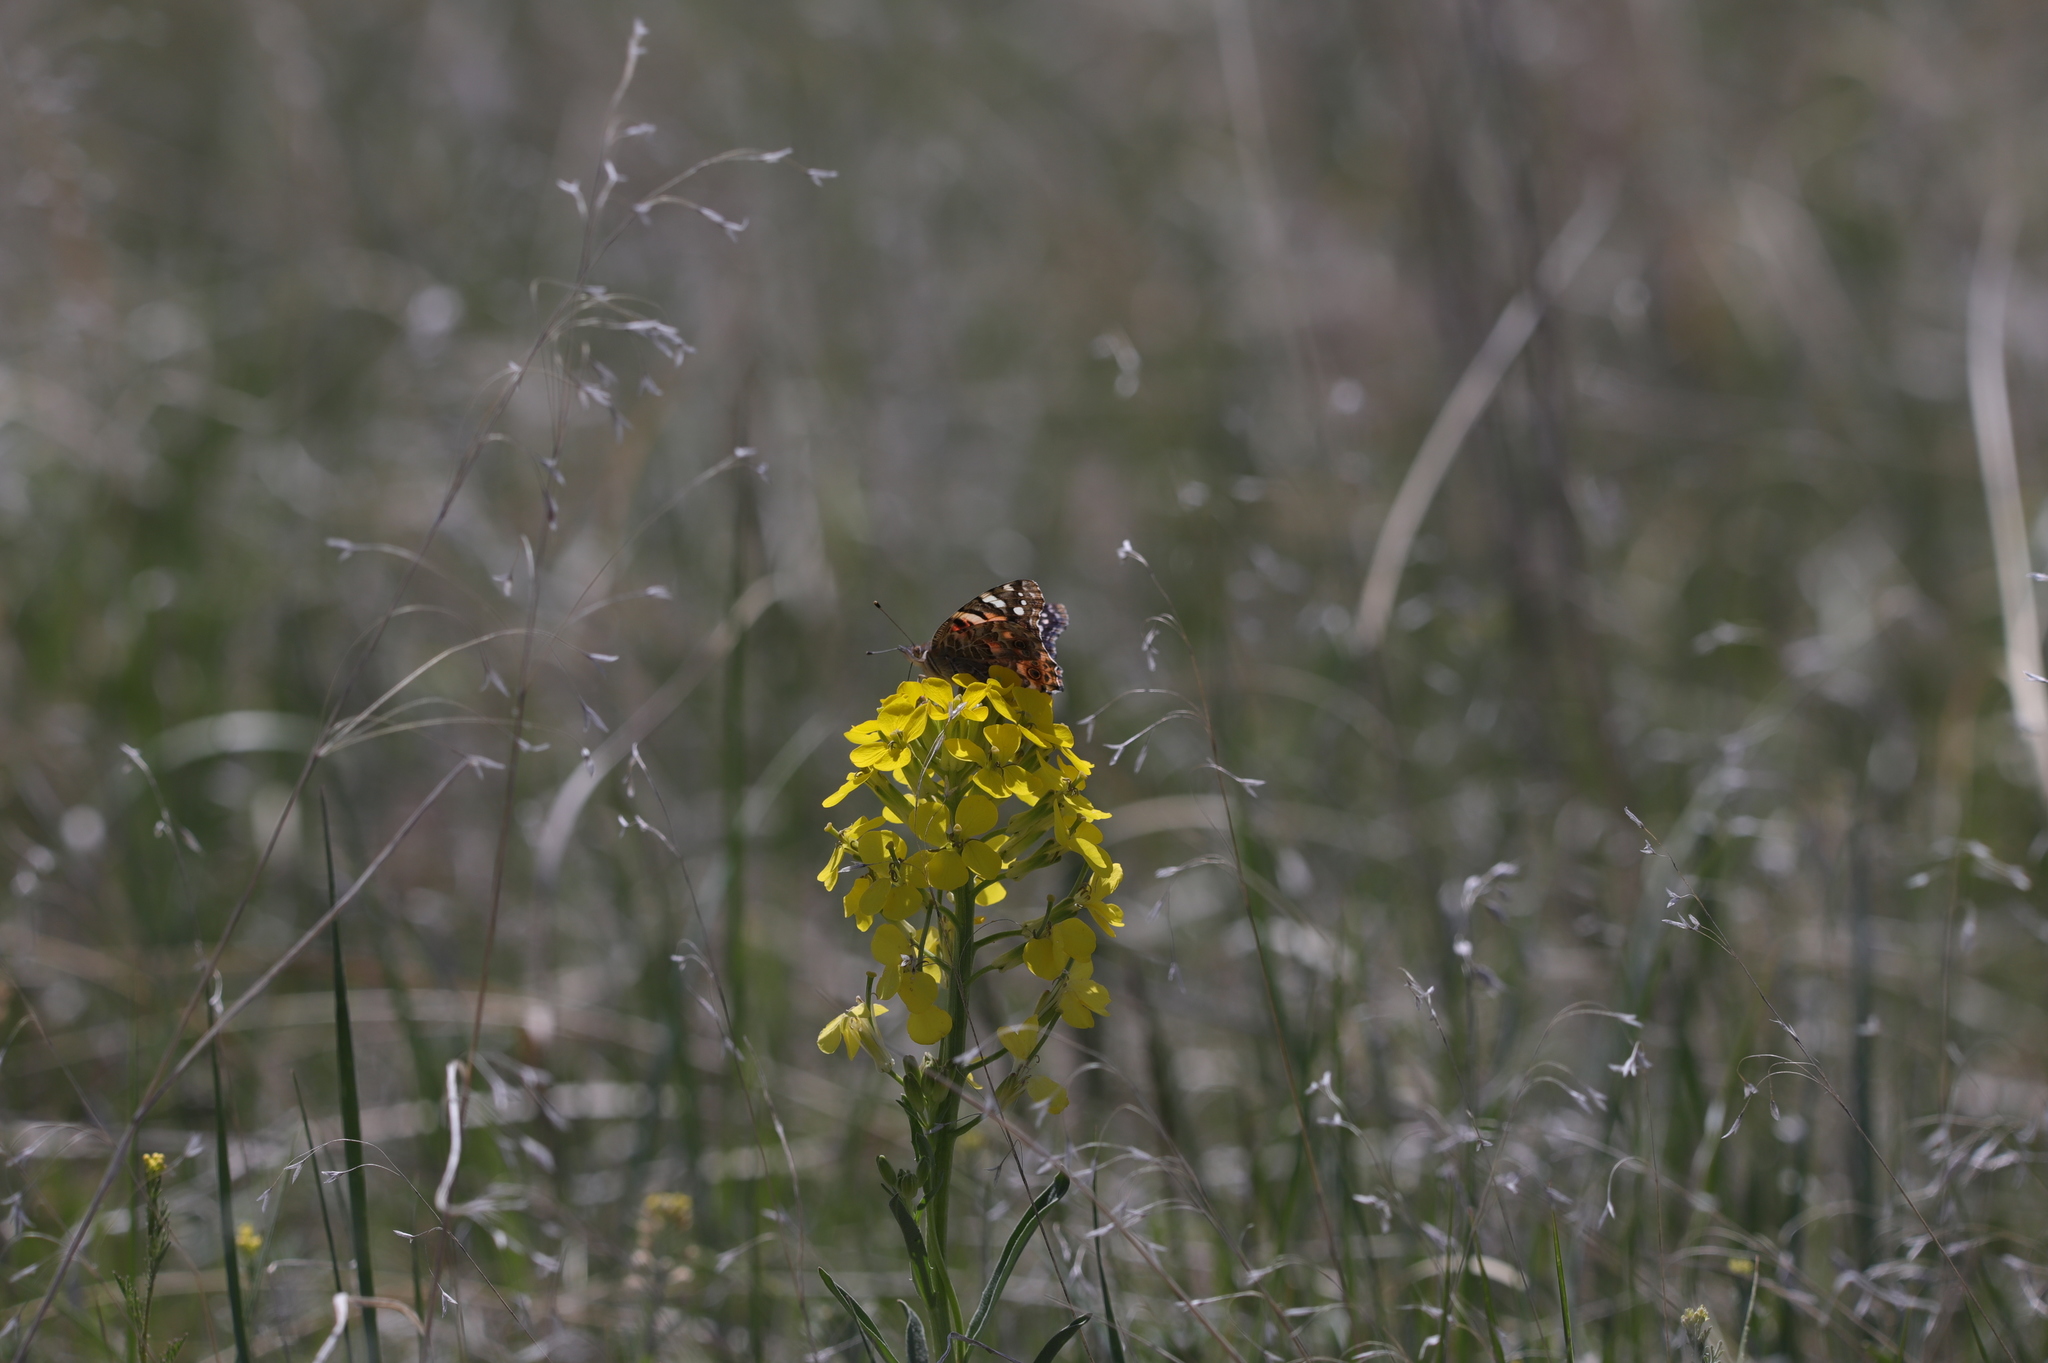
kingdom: Plantae
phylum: Tracheophyta
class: Magnoliopsida
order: Brassicales
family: Brassicaceae
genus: Erysimum
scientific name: Erysimum capitatum
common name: Western wallflower
